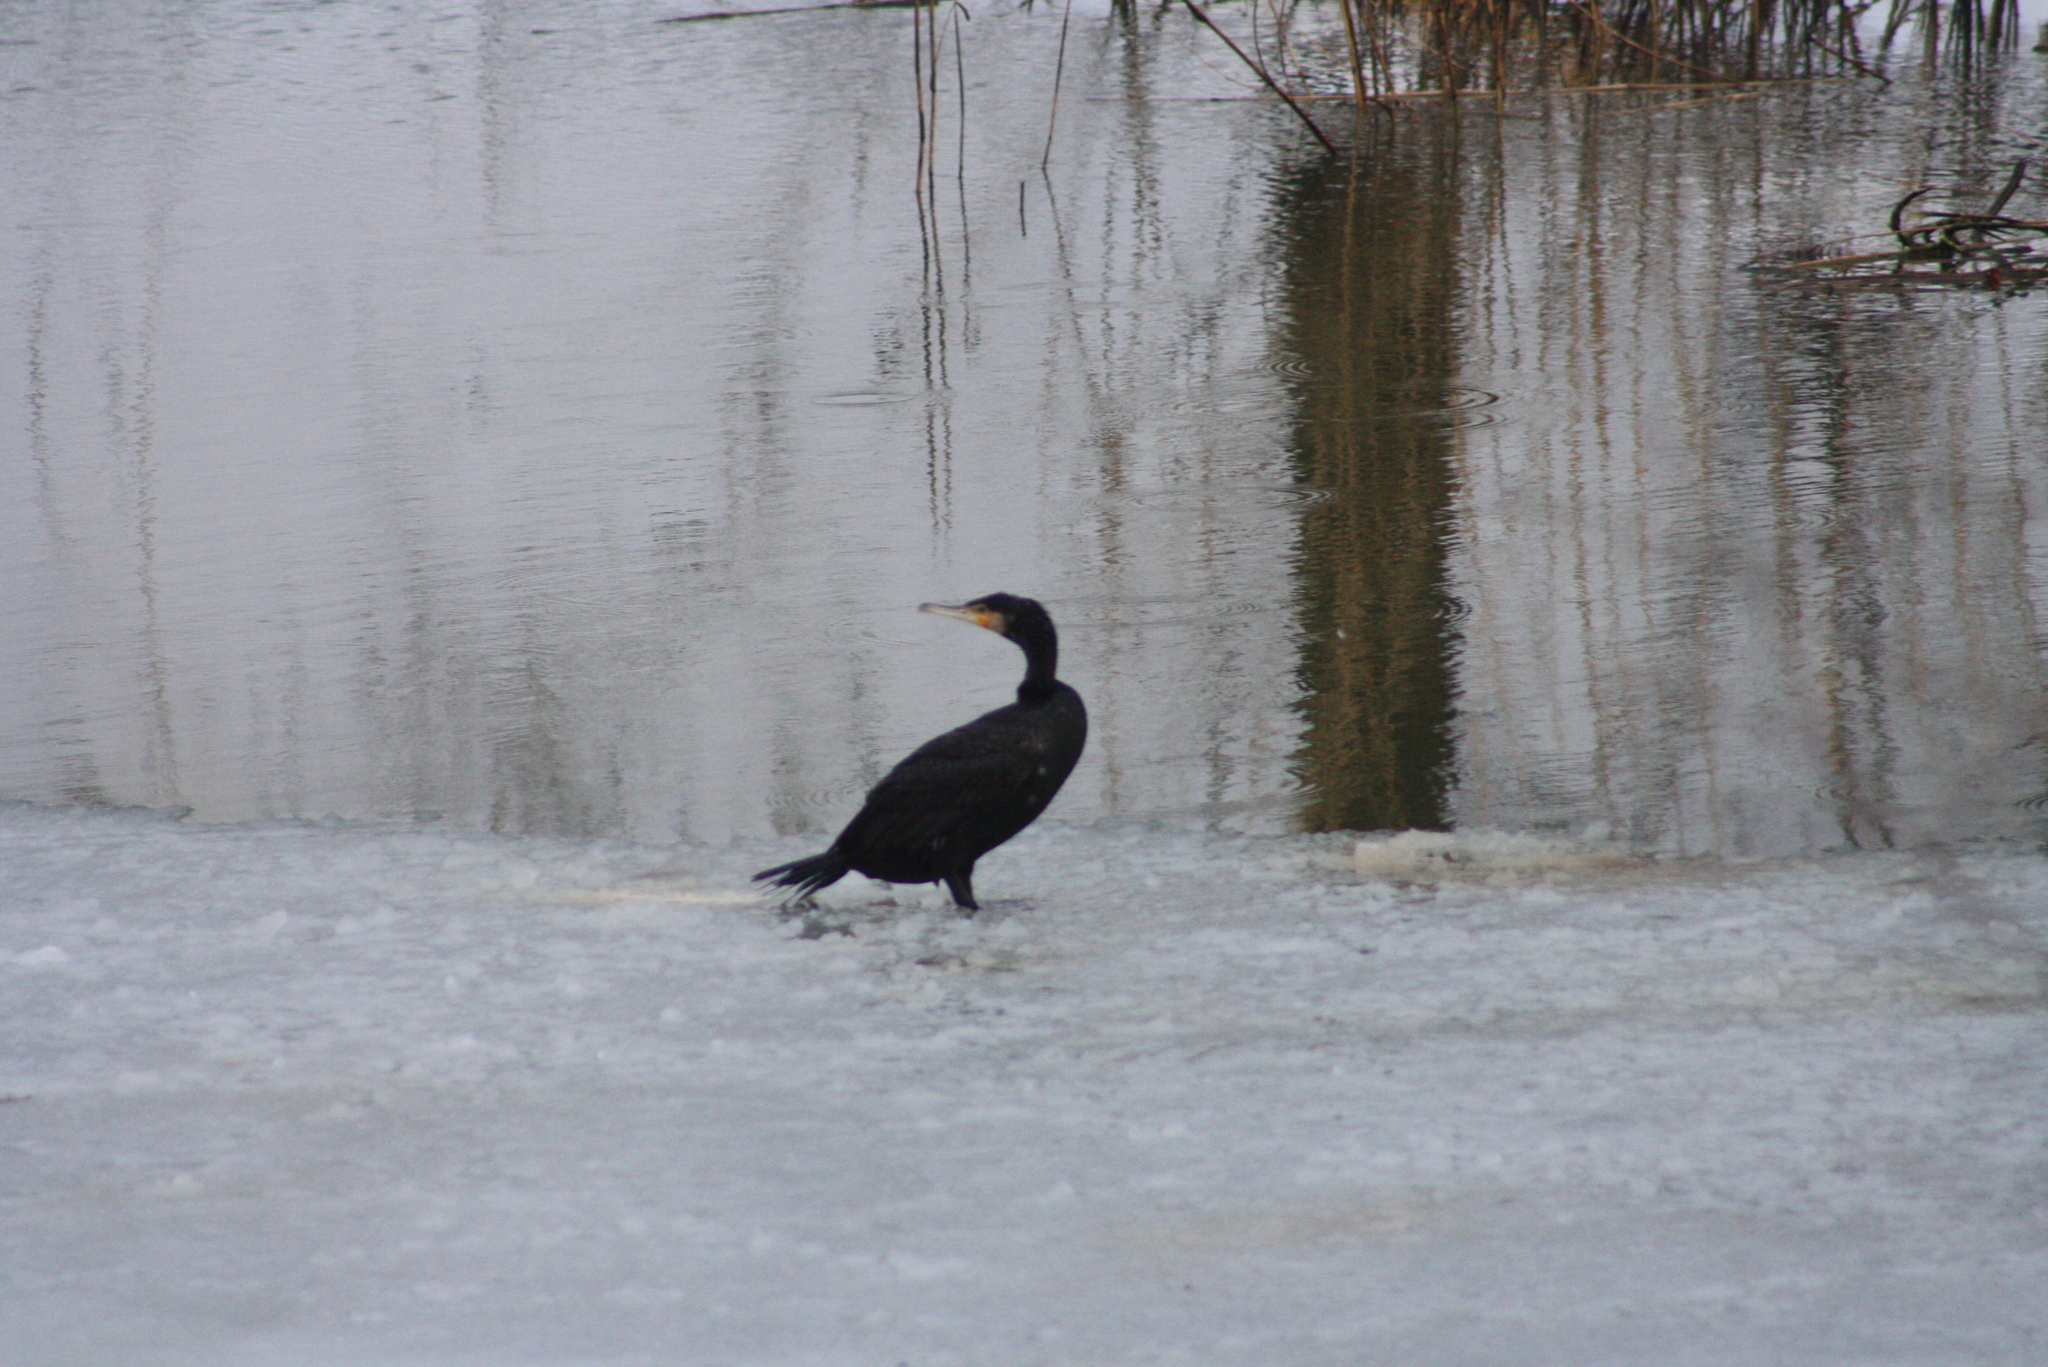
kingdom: Animalia
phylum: Chordata
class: Aves
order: Suliformes
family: Phalacrocoracidae
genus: Phalacrocorax
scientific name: Phalacrocorax carbo
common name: Great cormorant
